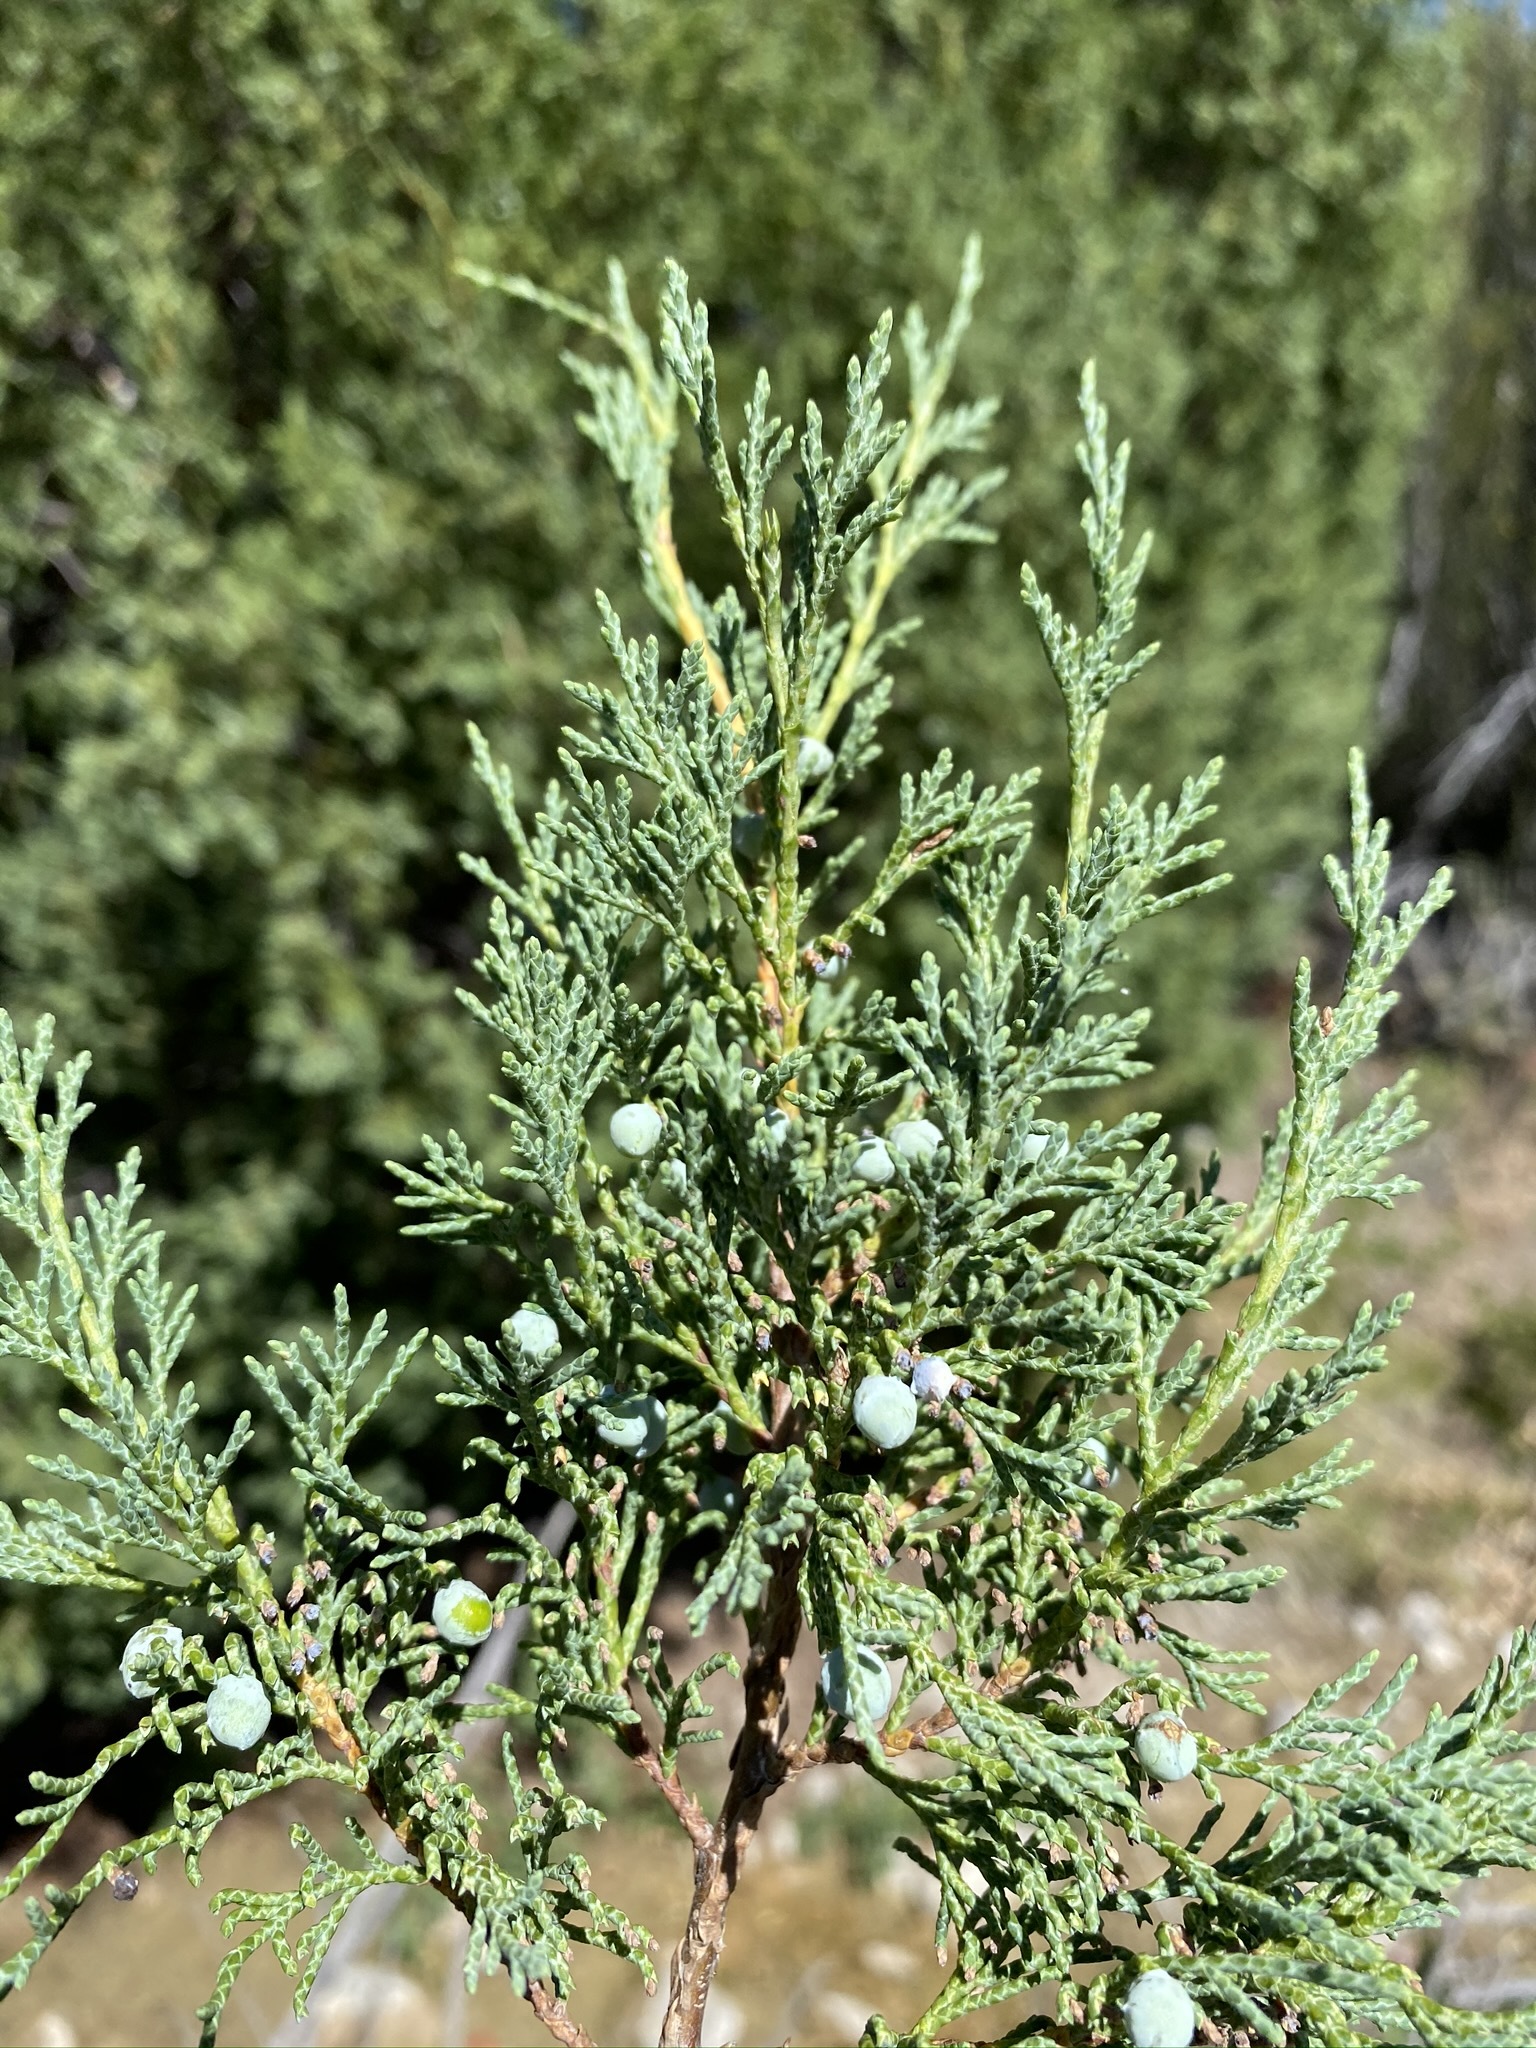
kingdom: Plantae
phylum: Tracheophyta
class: Pinopsida
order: Pinales
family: Cupressaceae
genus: Juniperus
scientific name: Juniperus scopulorum
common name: Rocky mountain juniper
